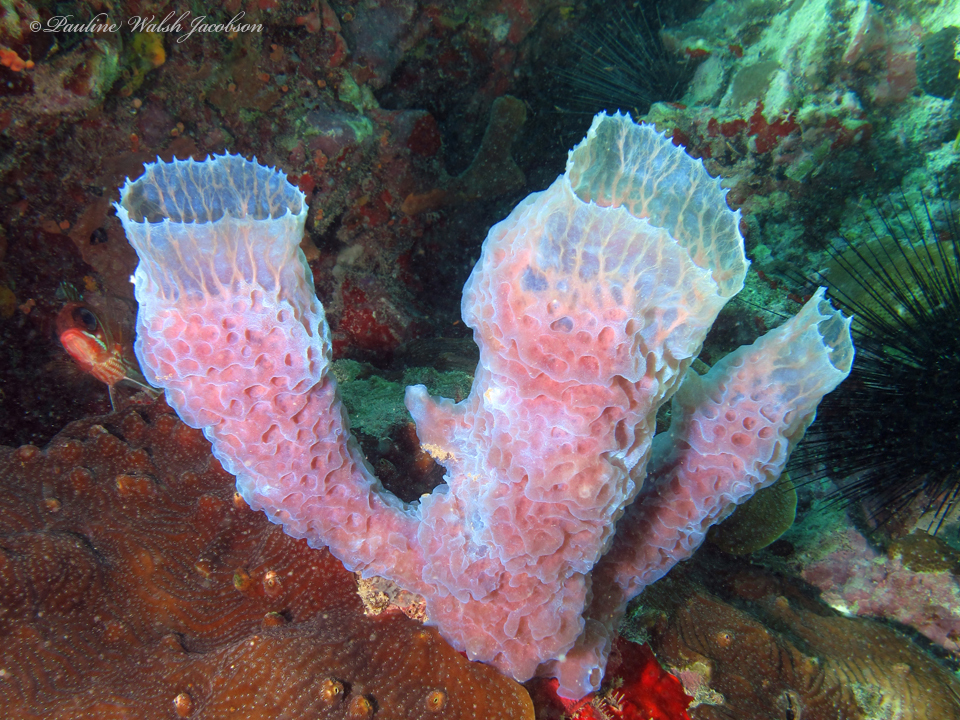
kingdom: Animalia
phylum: Porifera
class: Demospongiae
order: Haplosclerida
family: Callyspongiidae
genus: Callyspongia
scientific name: Callyspongia plicifera
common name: Azure vase sponge
